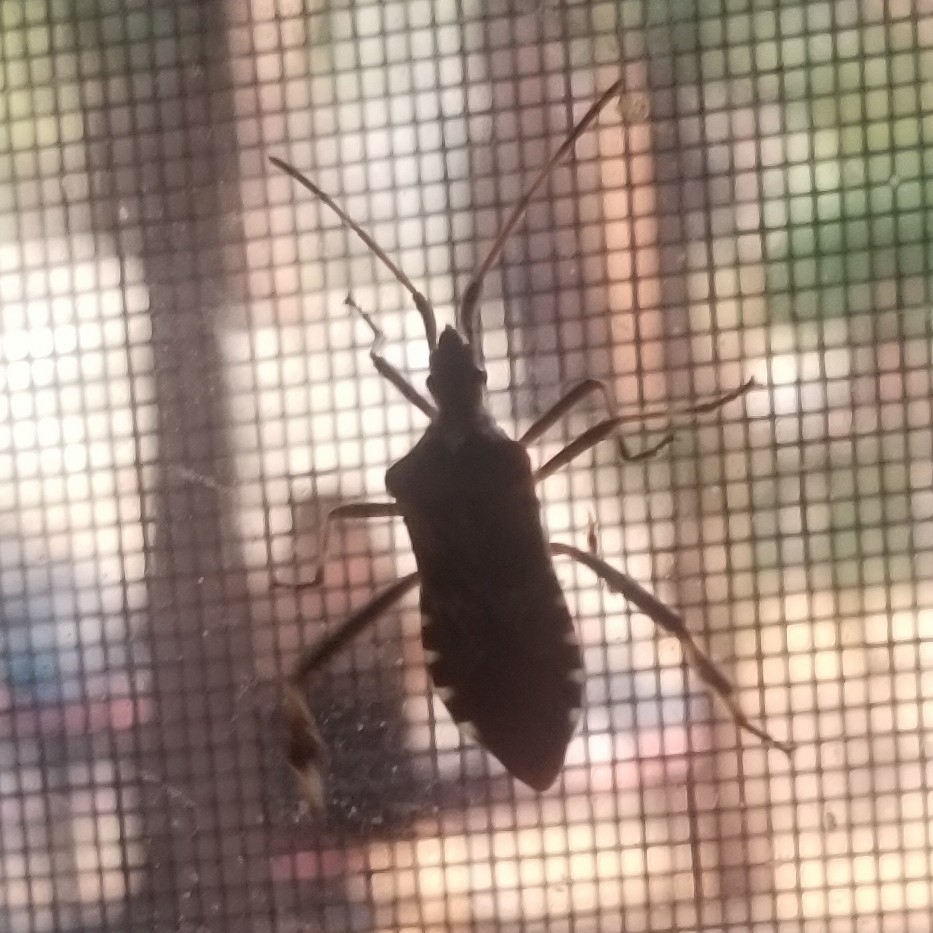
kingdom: Animalia
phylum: Arthropoda
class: Insecta
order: Hemiptera
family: Coreidae
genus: Leptoglossus
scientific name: Leptoglossus occidentalis
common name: Western conifer-seed bug
